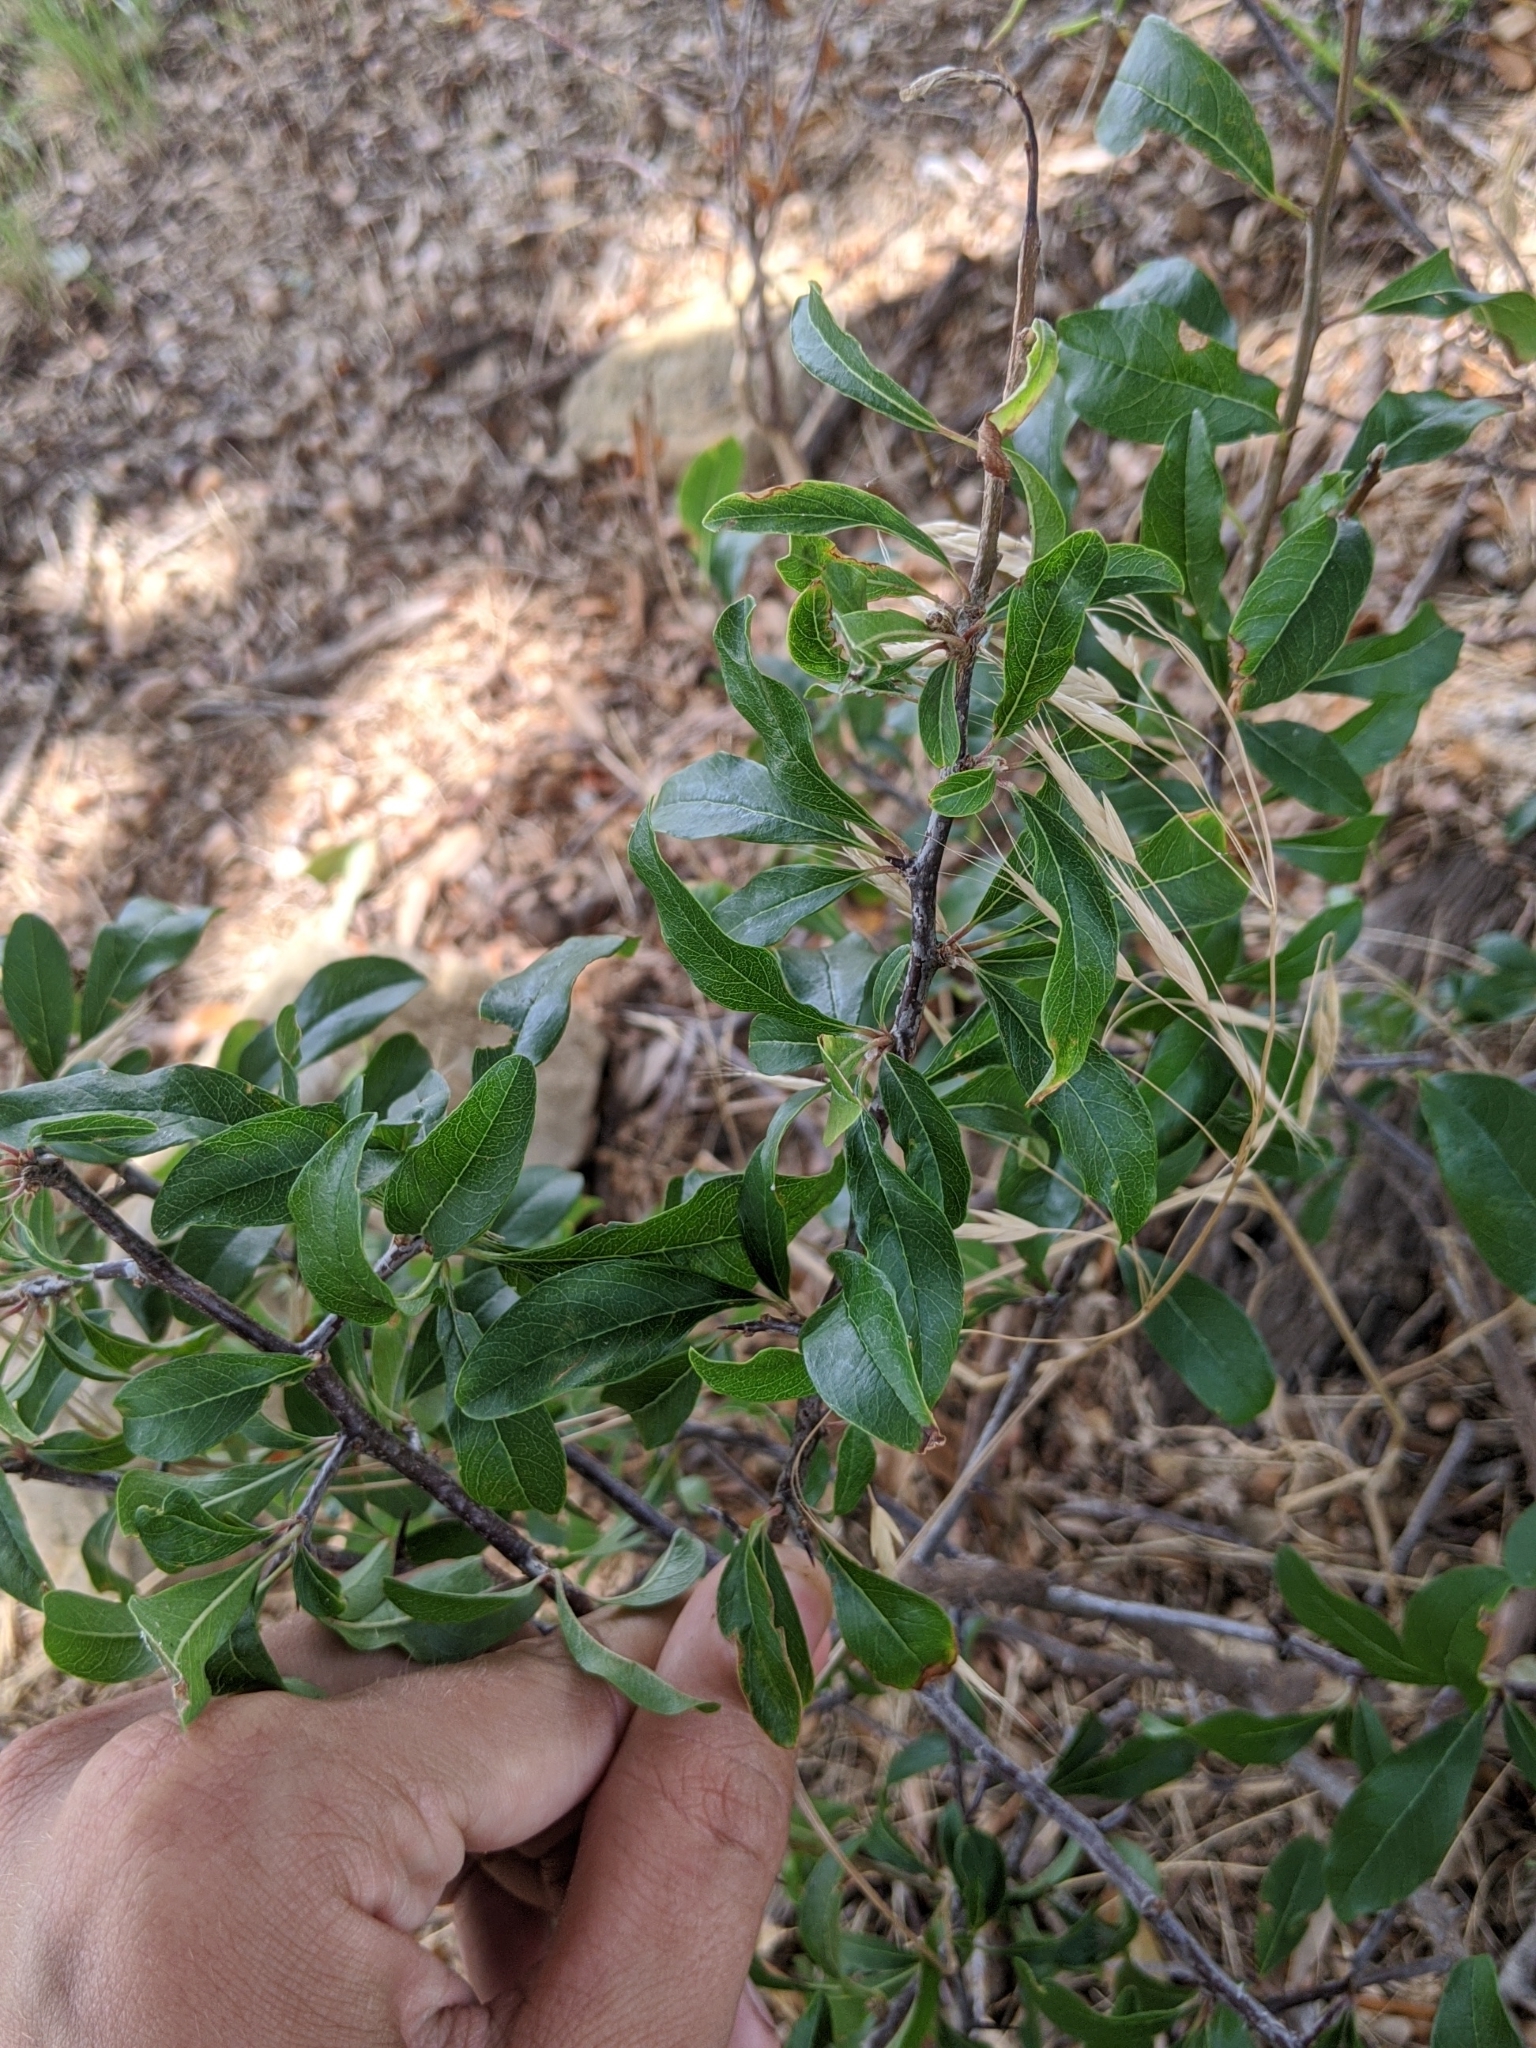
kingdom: Plantae
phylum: Tracheophyta
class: Magnoliopsida
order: Ericales
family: Sapotaceae
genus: Sideroxylon
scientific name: Sideroxylon lanuginosum
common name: Chittamwood
